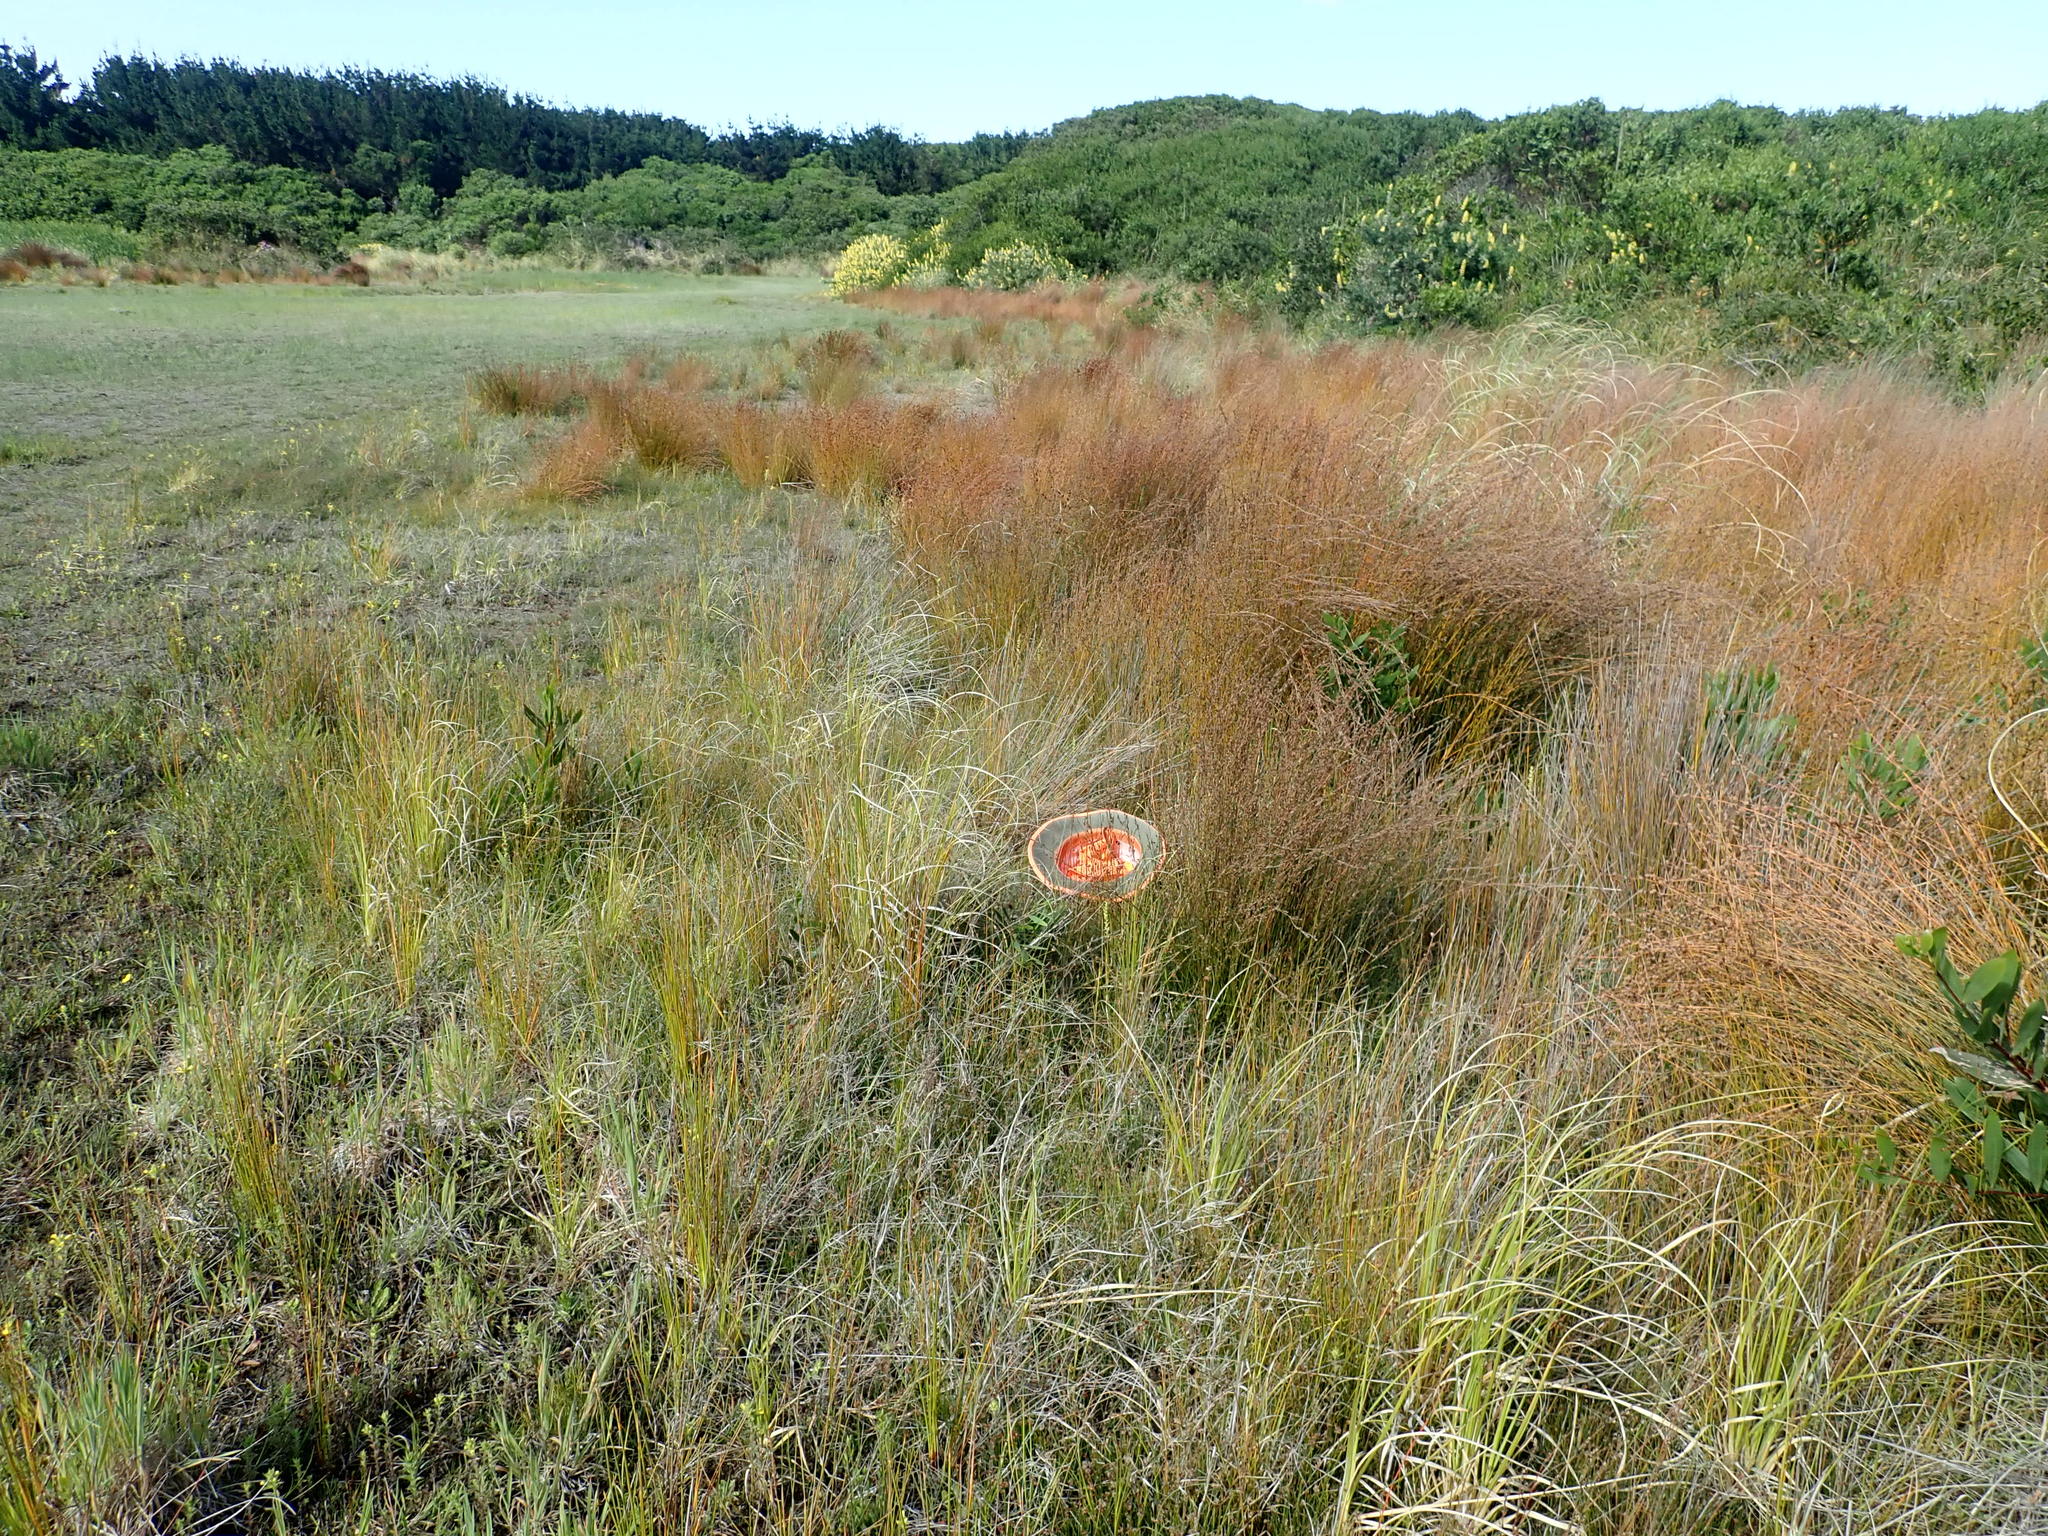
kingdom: Plantae
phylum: Tracheophyta
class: Liliopsida
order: Asparagales
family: Orchidaceae
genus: Microtis
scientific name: Microtis unifolia
